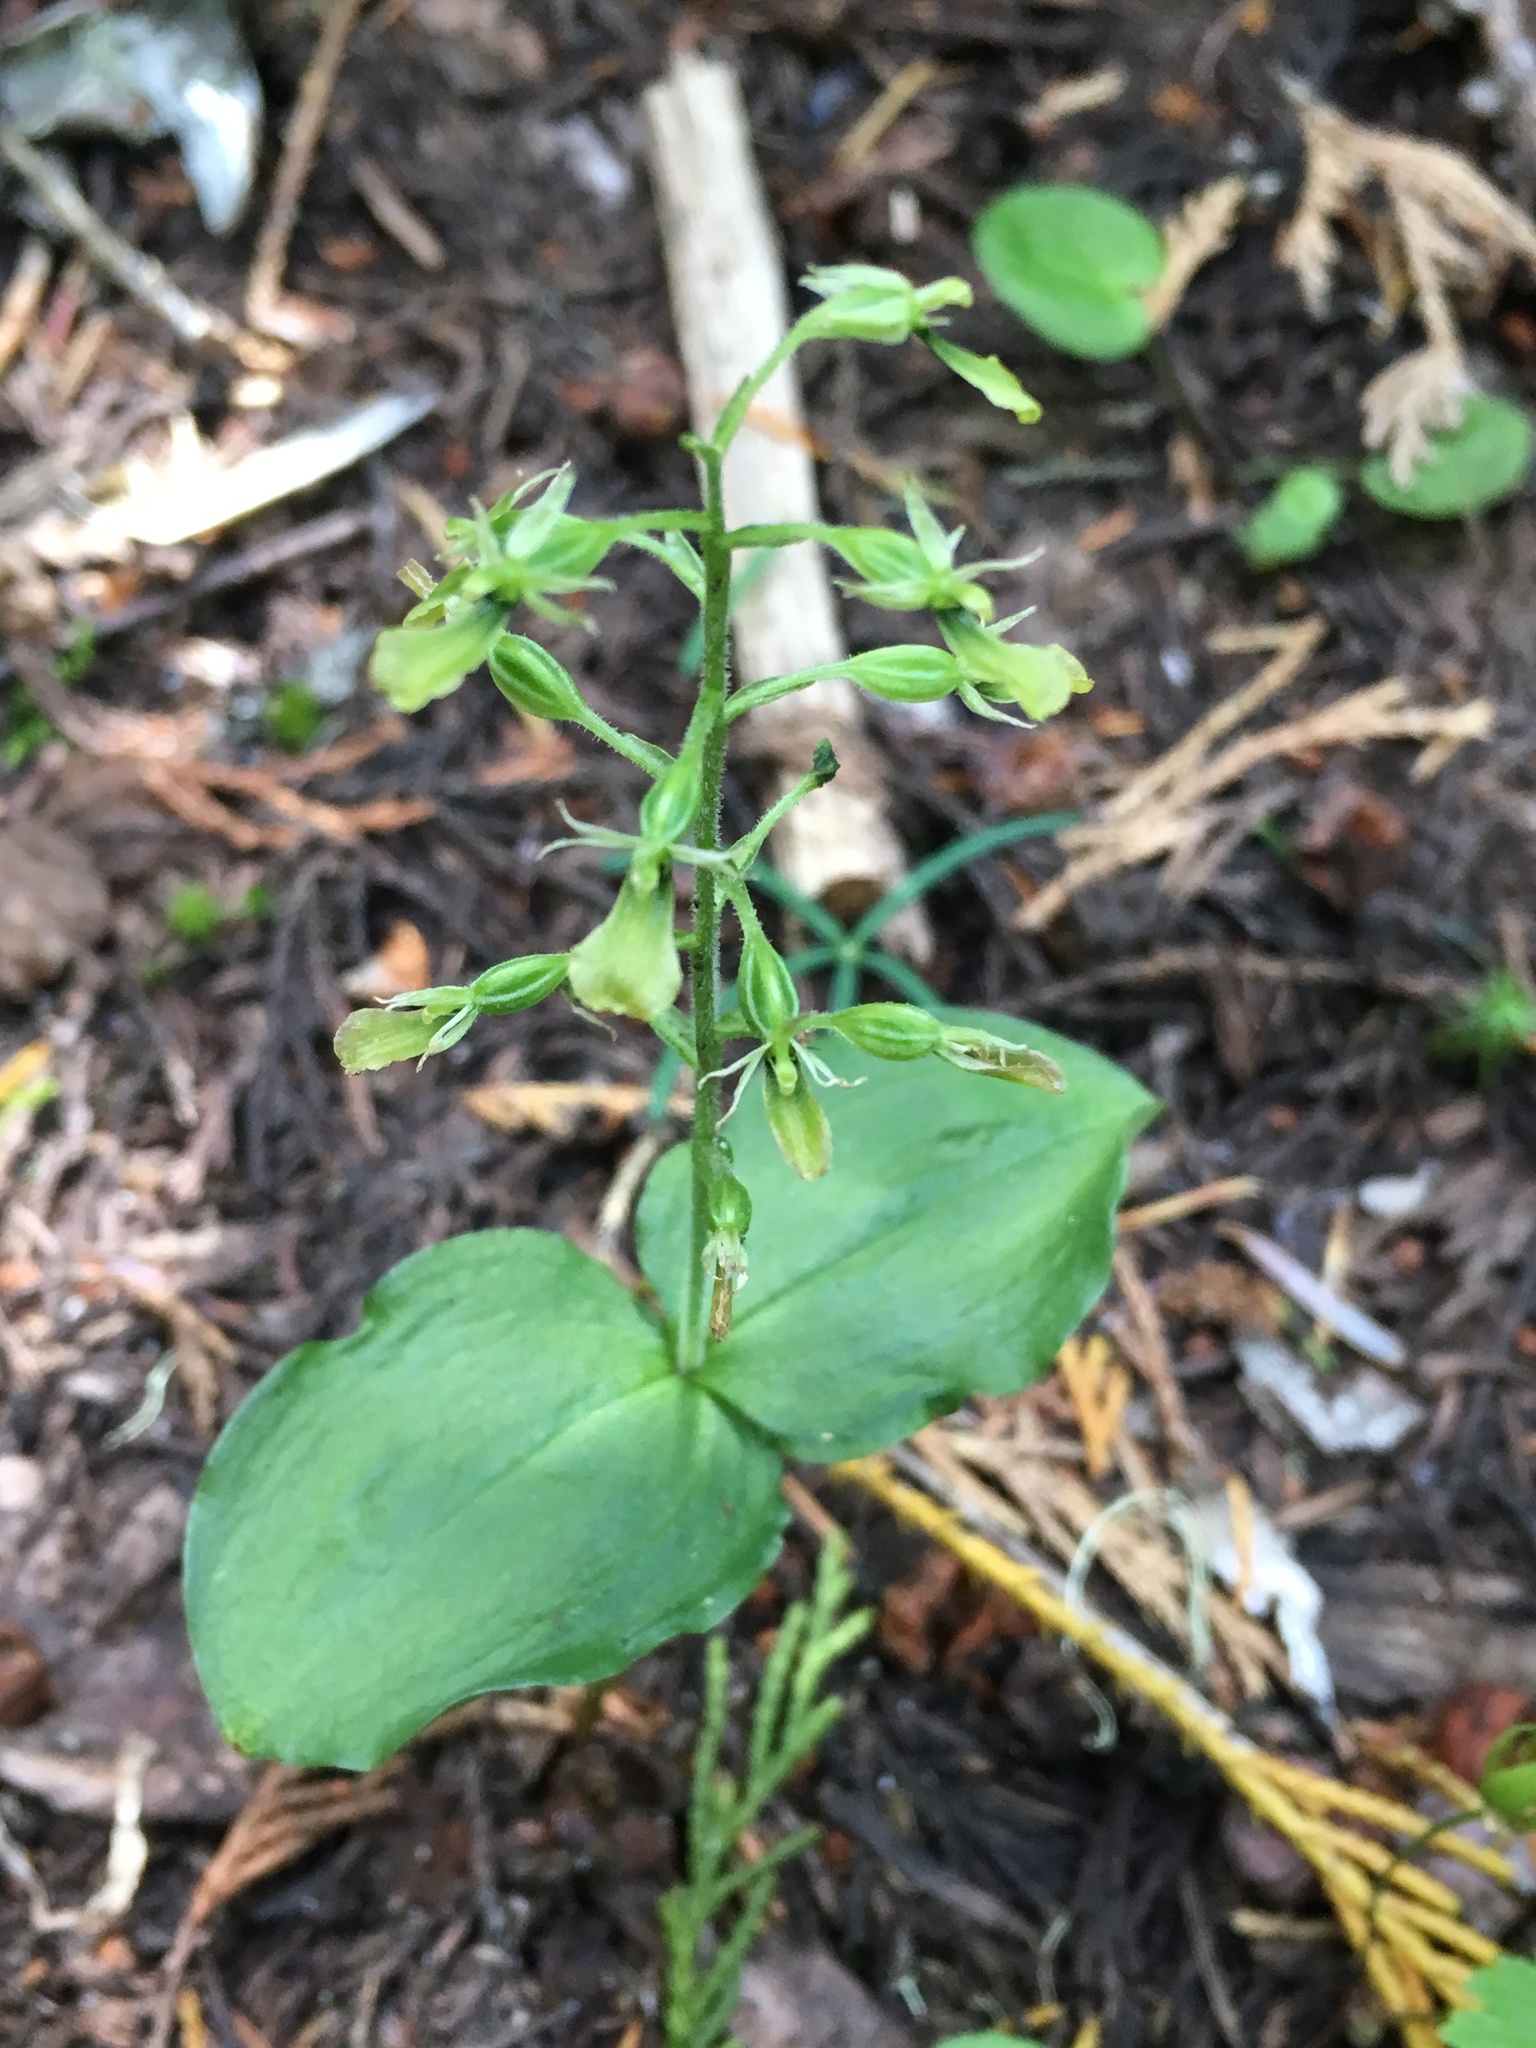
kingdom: Plantae
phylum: Tracheophyta
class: Liliopsida
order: Asparagales
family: Orchidaceae
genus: Neottia
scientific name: Neottia banksiana
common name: Northwestern twayblade
